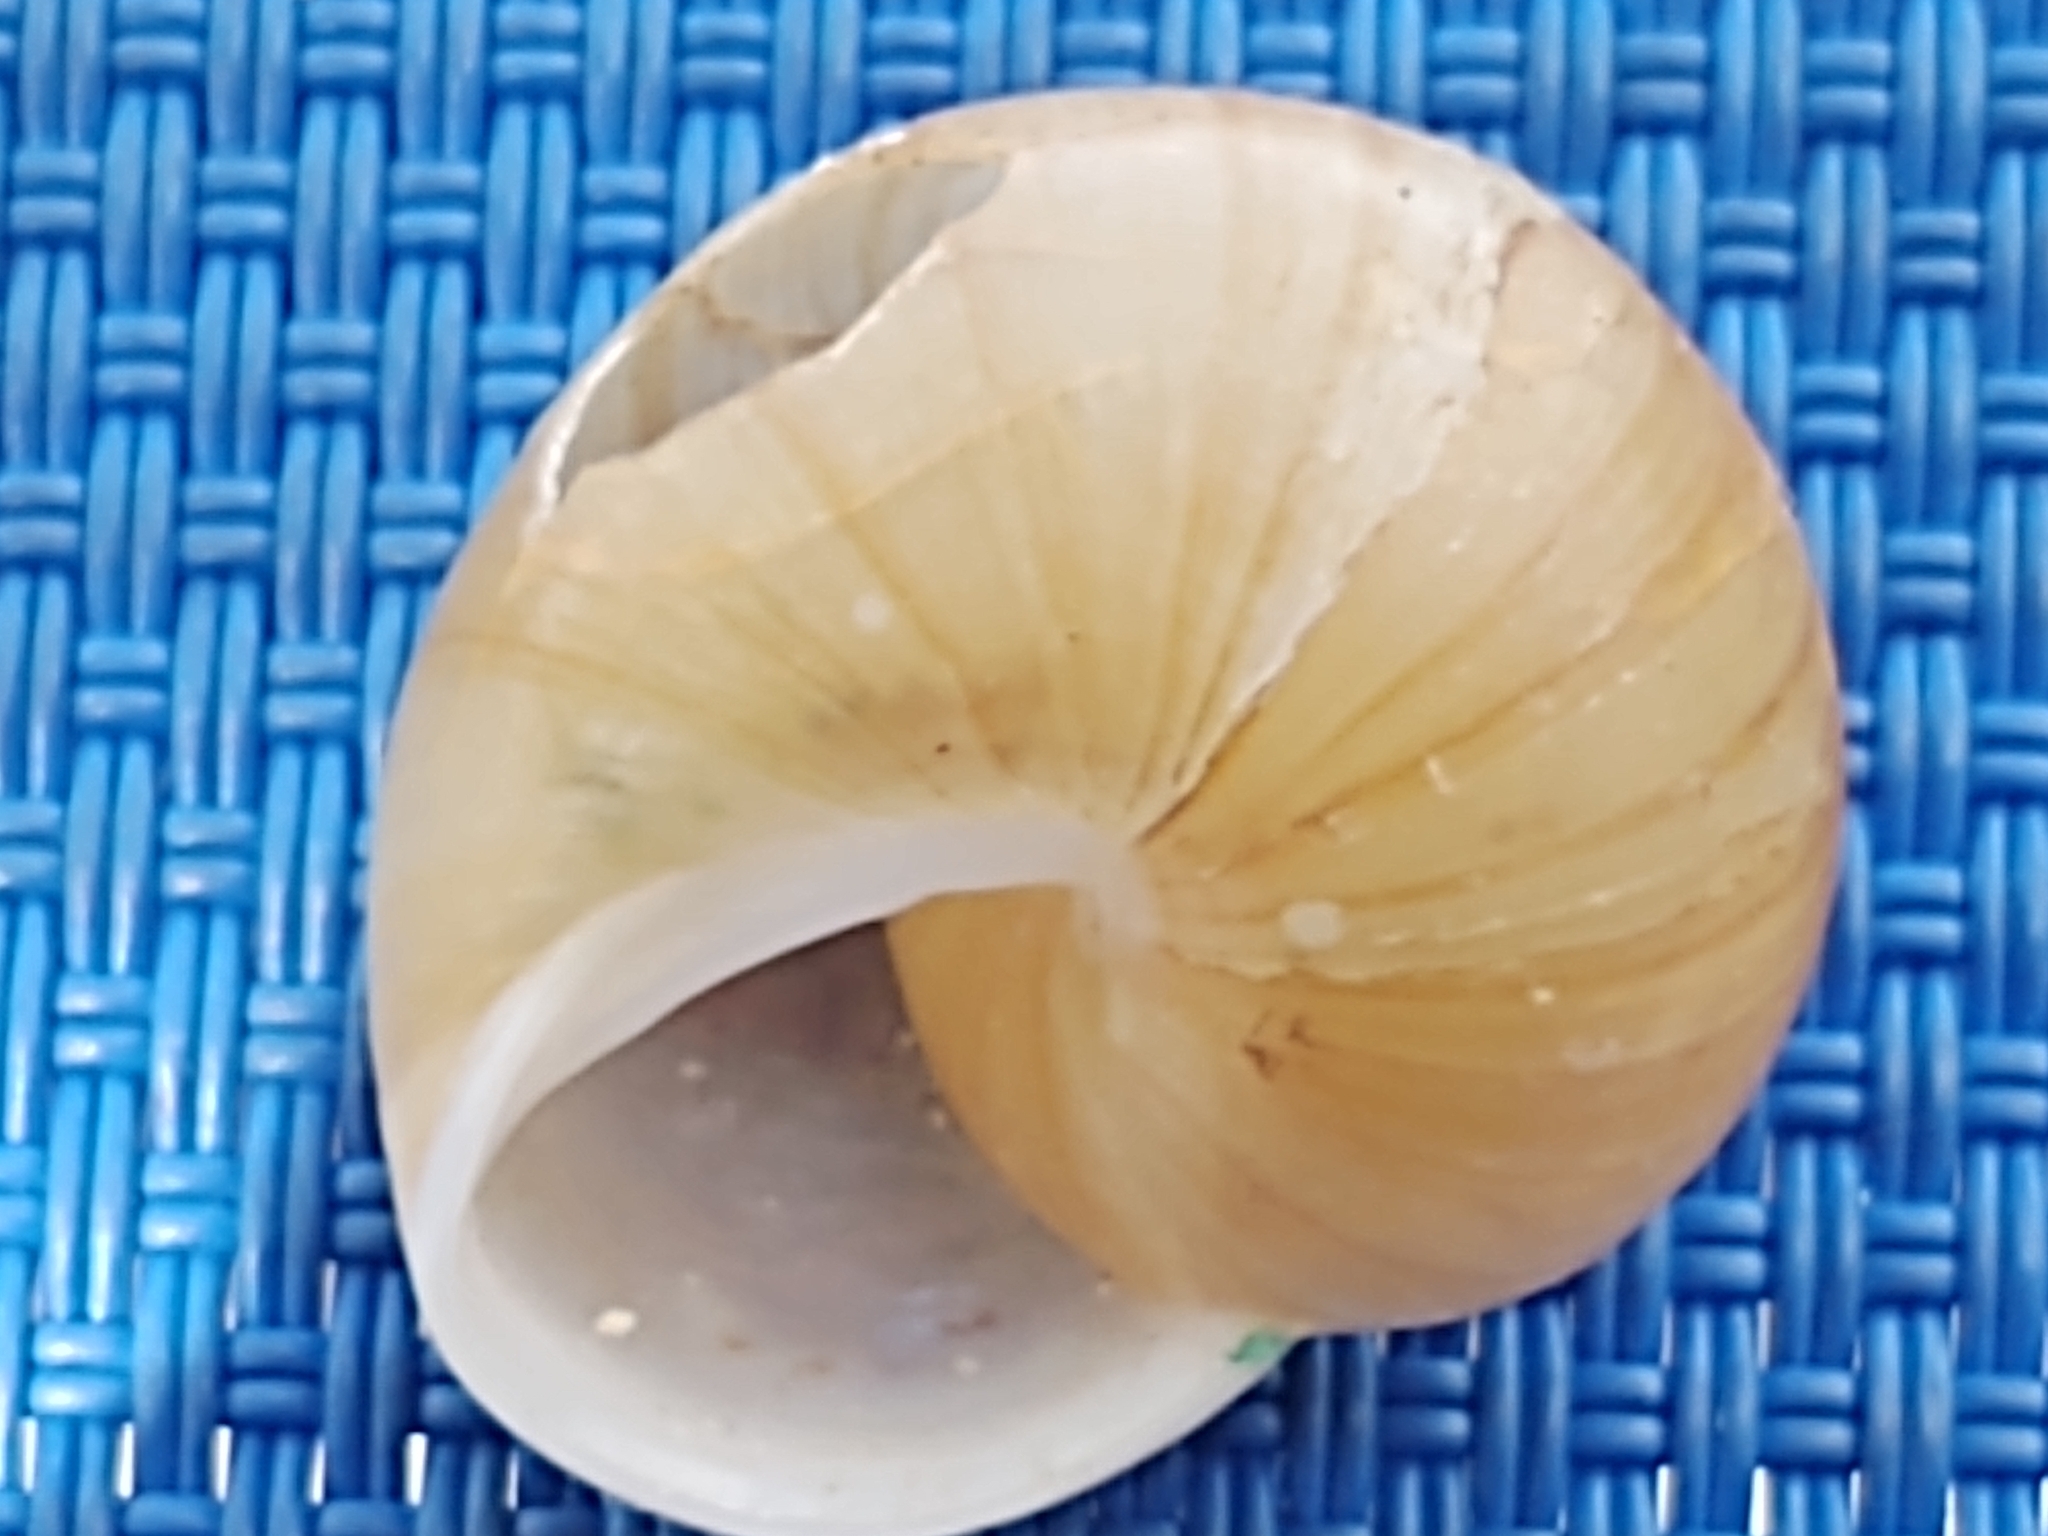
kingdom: Animalia
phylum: Mollusca
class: Gastropoda
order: Stylommatophora
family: Zachrysiidae
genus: Zachrysia
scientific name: Zachrysia provisoria
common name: Garden zachrysia
